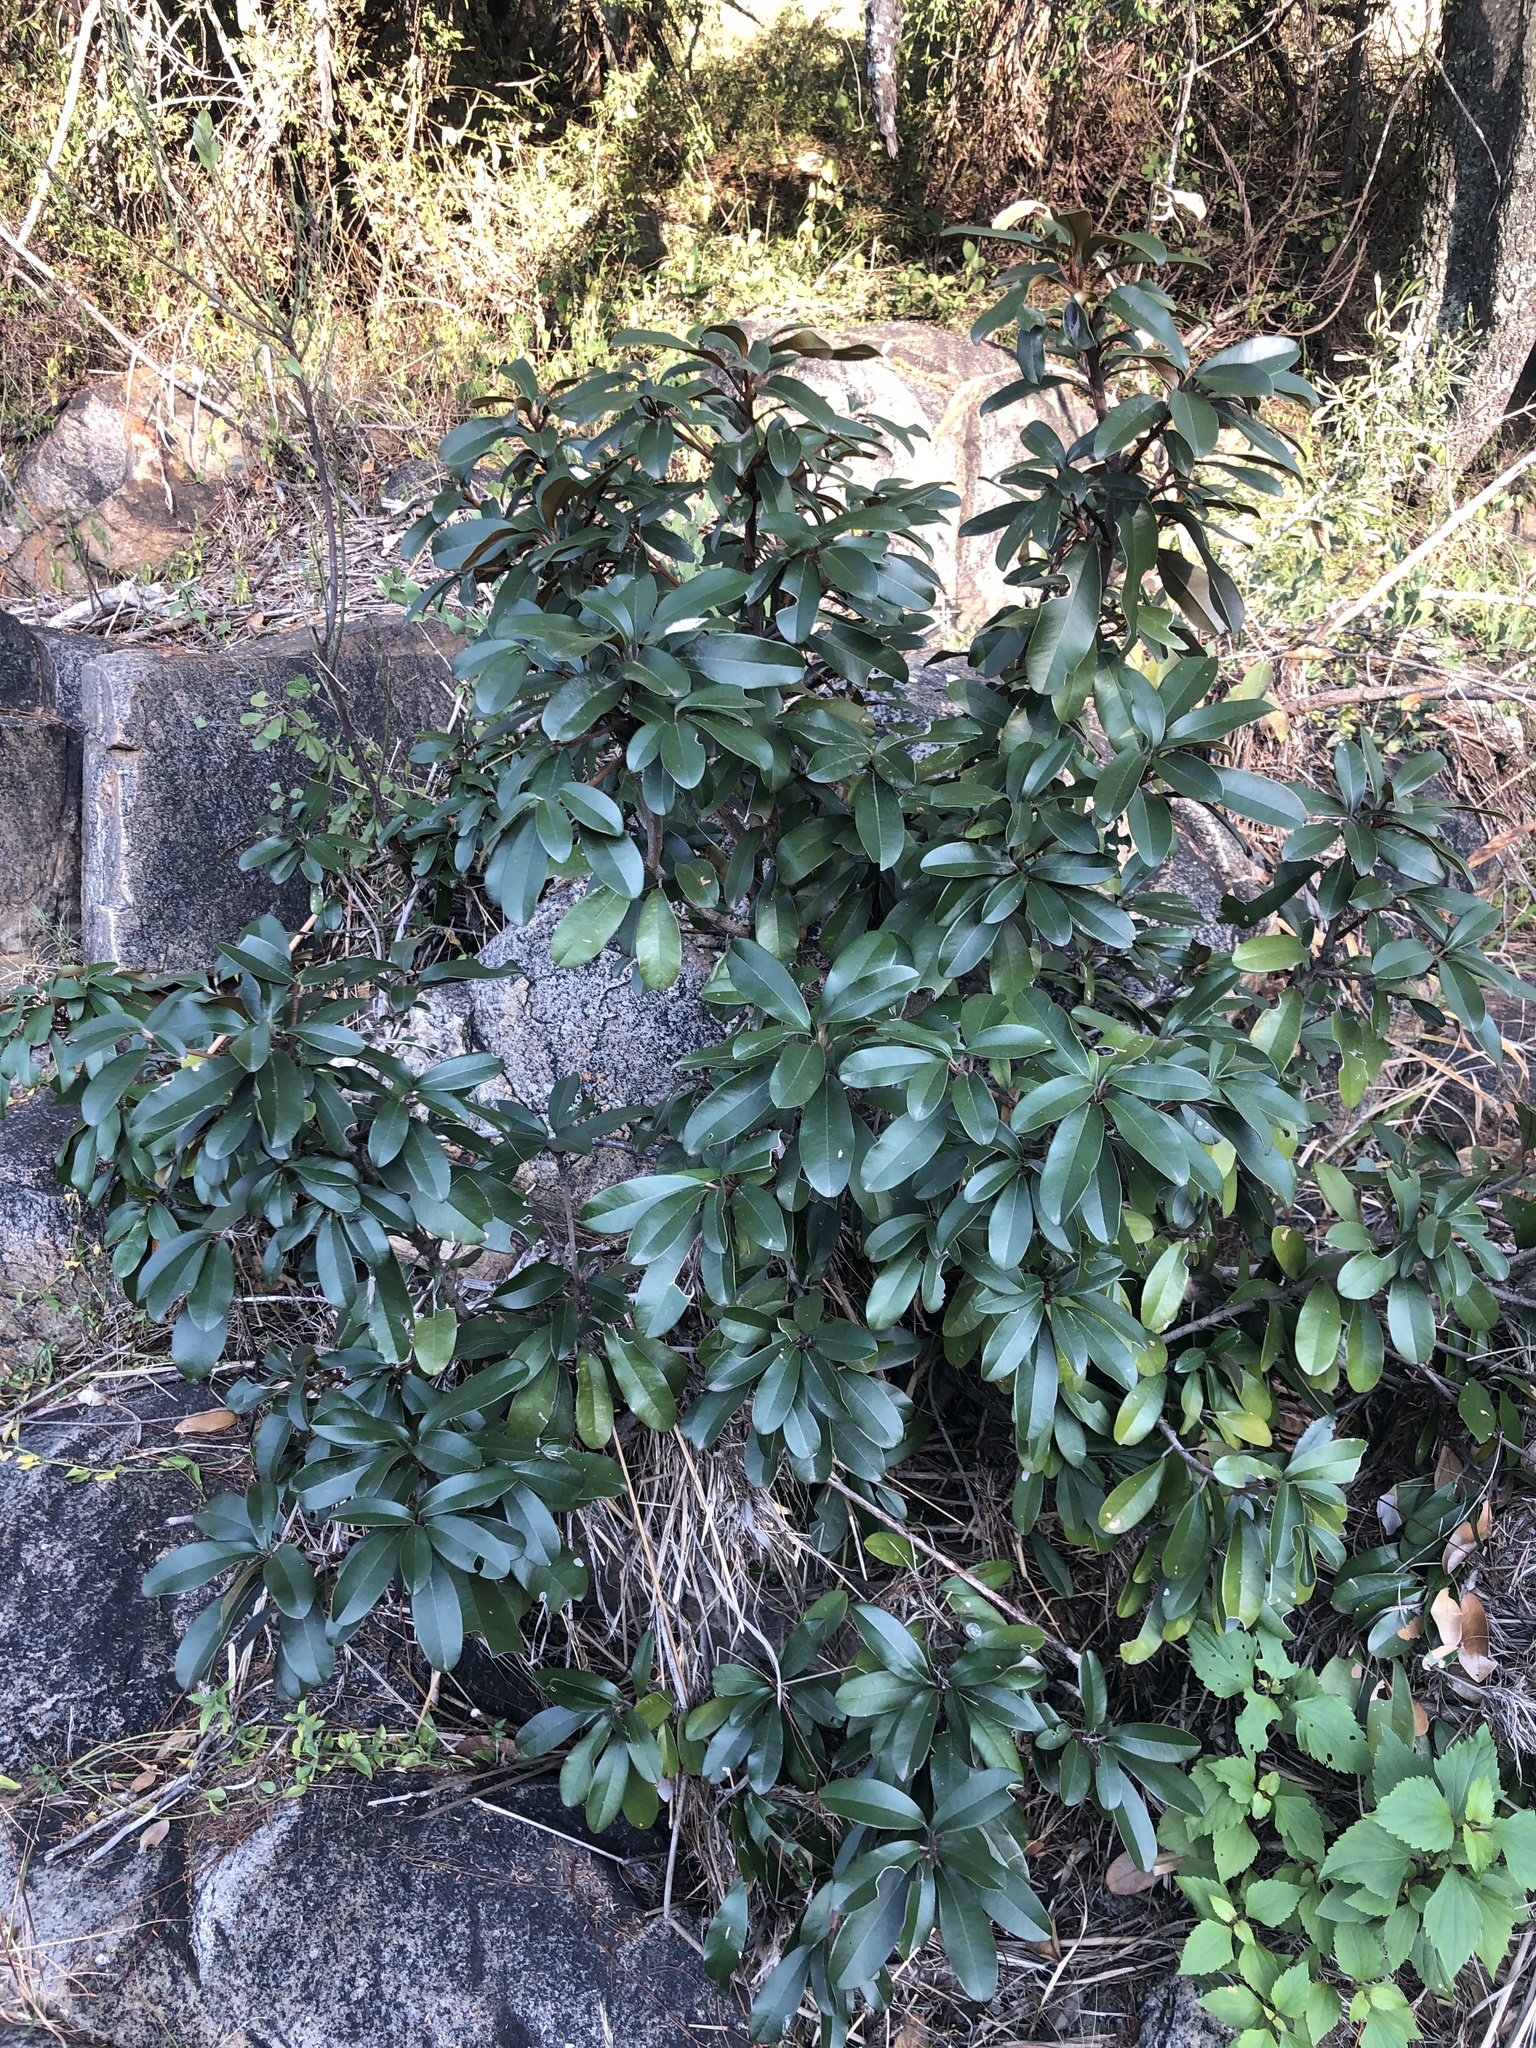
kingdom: Plantae
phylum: Tracheophyta
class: Magnoliopsida
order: Ericales
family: Sapotaceae
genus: Englerophytum
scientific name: Englerophytum magalismontanum
